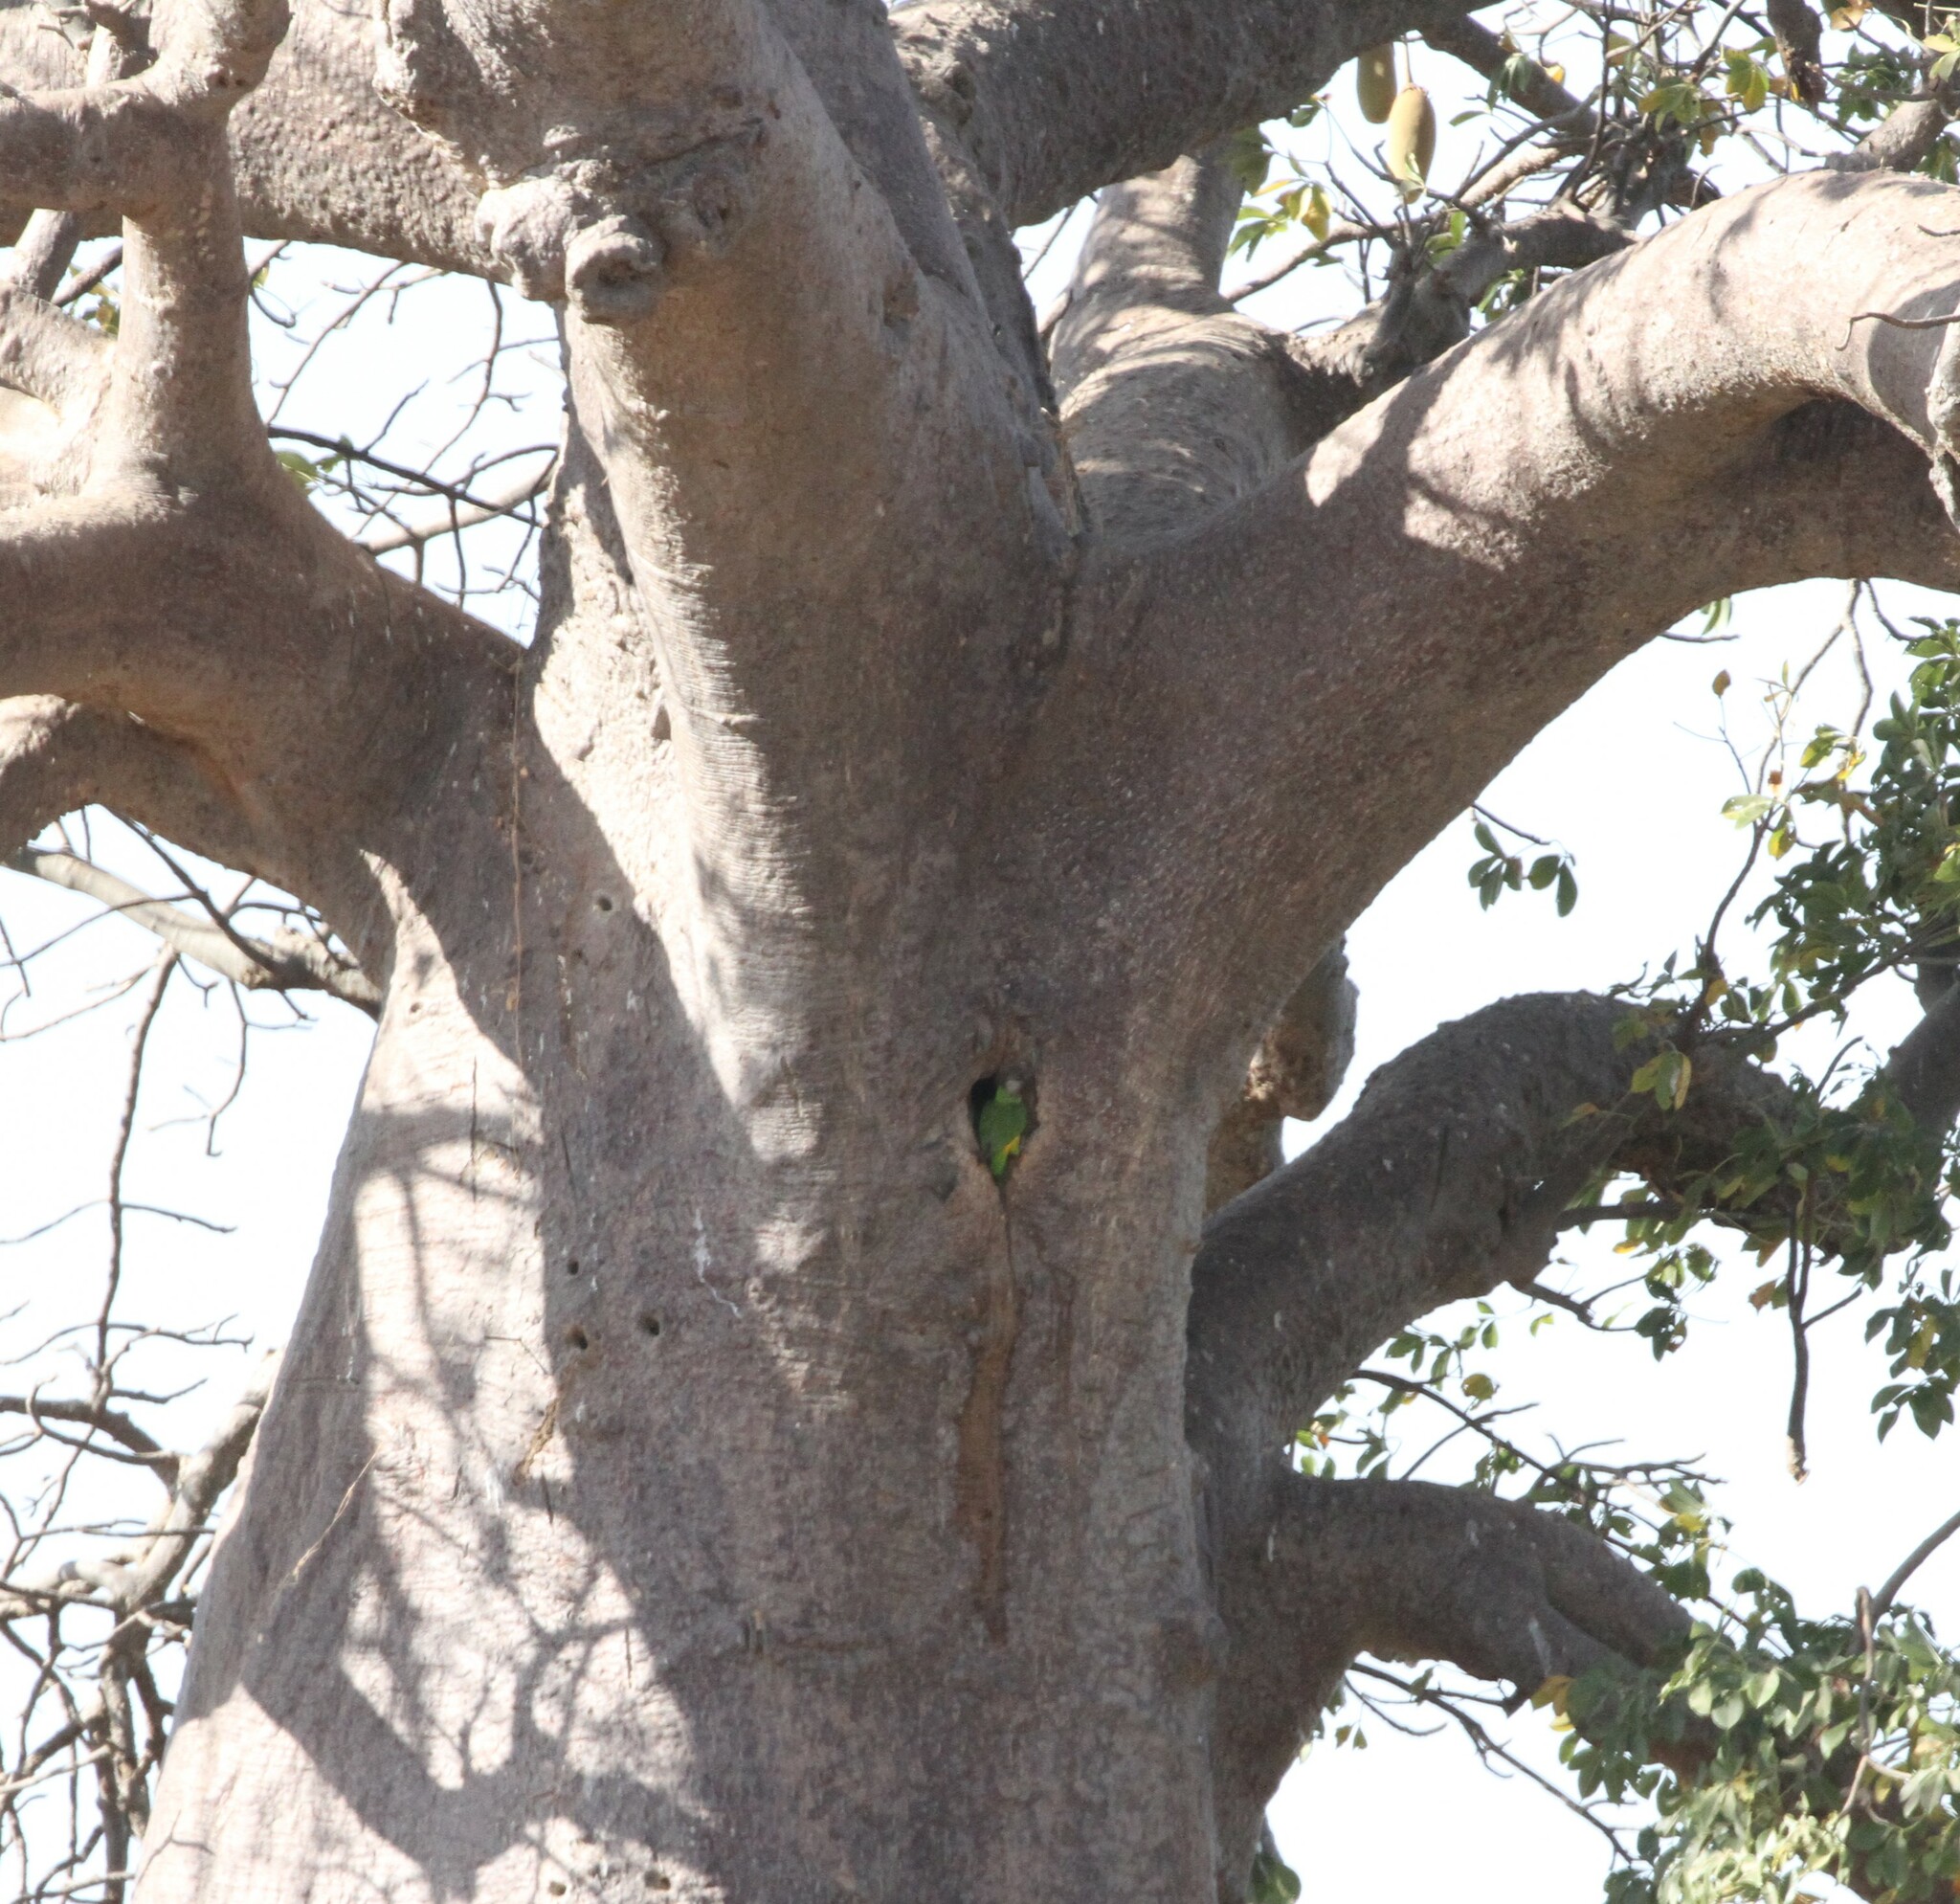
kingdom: Animalia
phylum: Chordata
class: Aves
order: Psittaciformes
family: Psittacidae
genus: Poicephalus
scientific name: Poicephalus senegalus
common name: Senegal parrot
